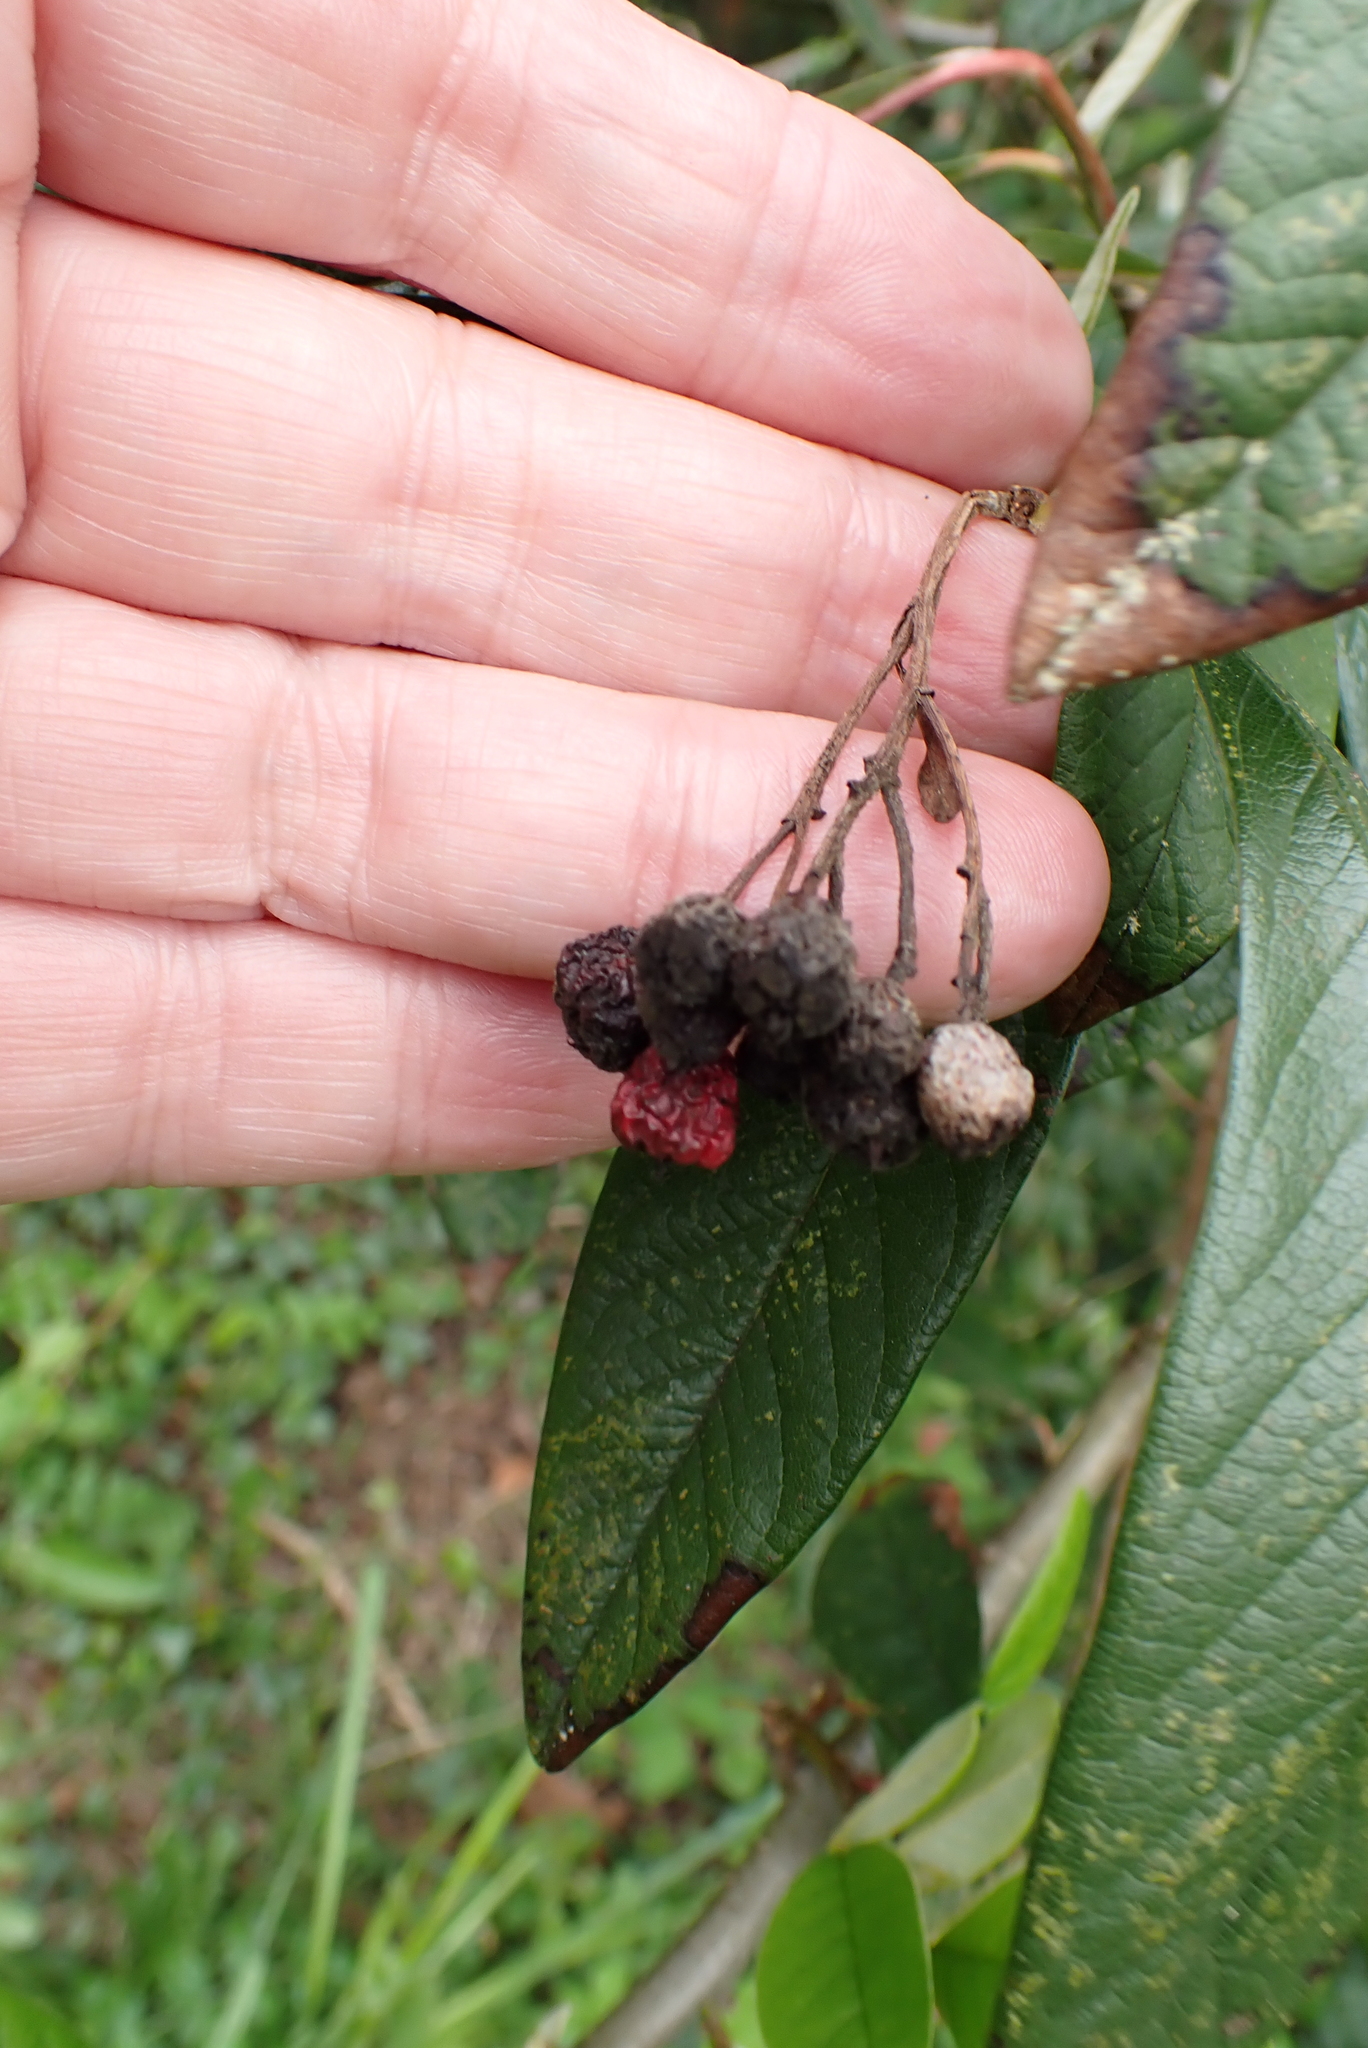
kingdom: Plantae
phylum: Tracheophyta
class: Magnoliopsida
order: Rosales
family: Rosaceae
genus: Cotoneaster
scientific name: Cotoneaster watereri
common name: Waterer's cotoneaster
